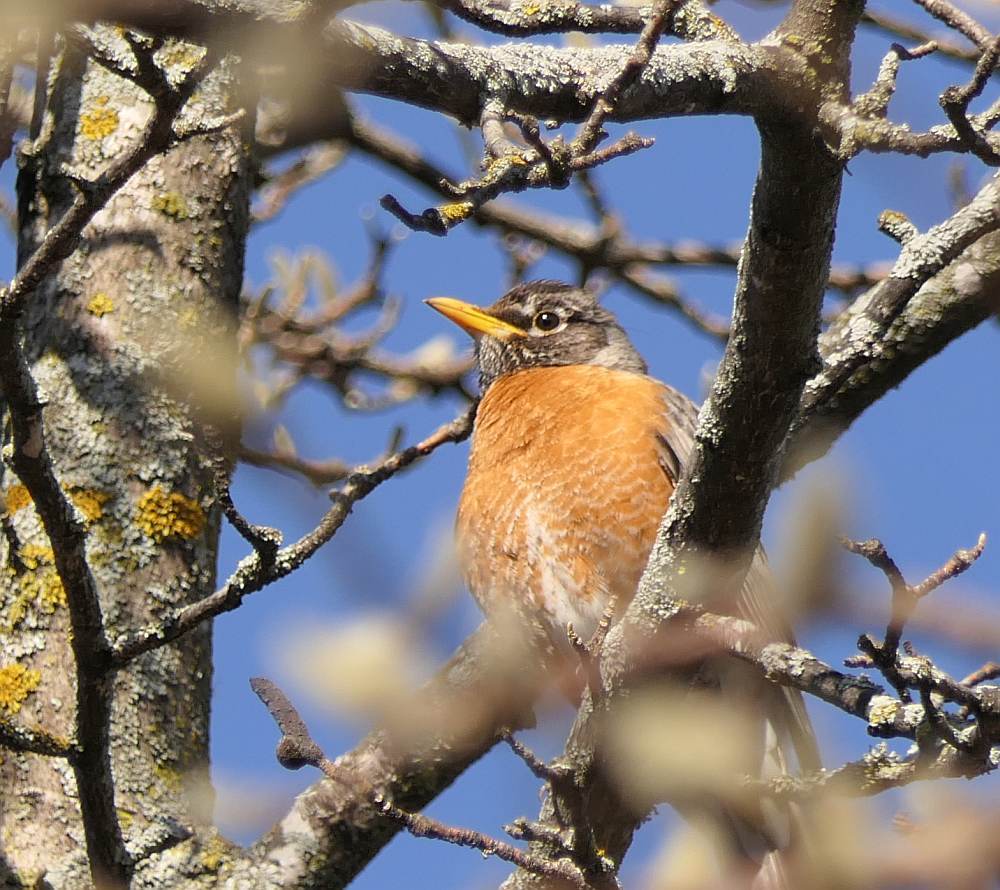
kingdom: Animalia
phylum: Chordata
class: Aves
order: Passeriformes
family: Turdidae
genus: Turdus
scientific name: Turdus migratorius
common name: American robin
